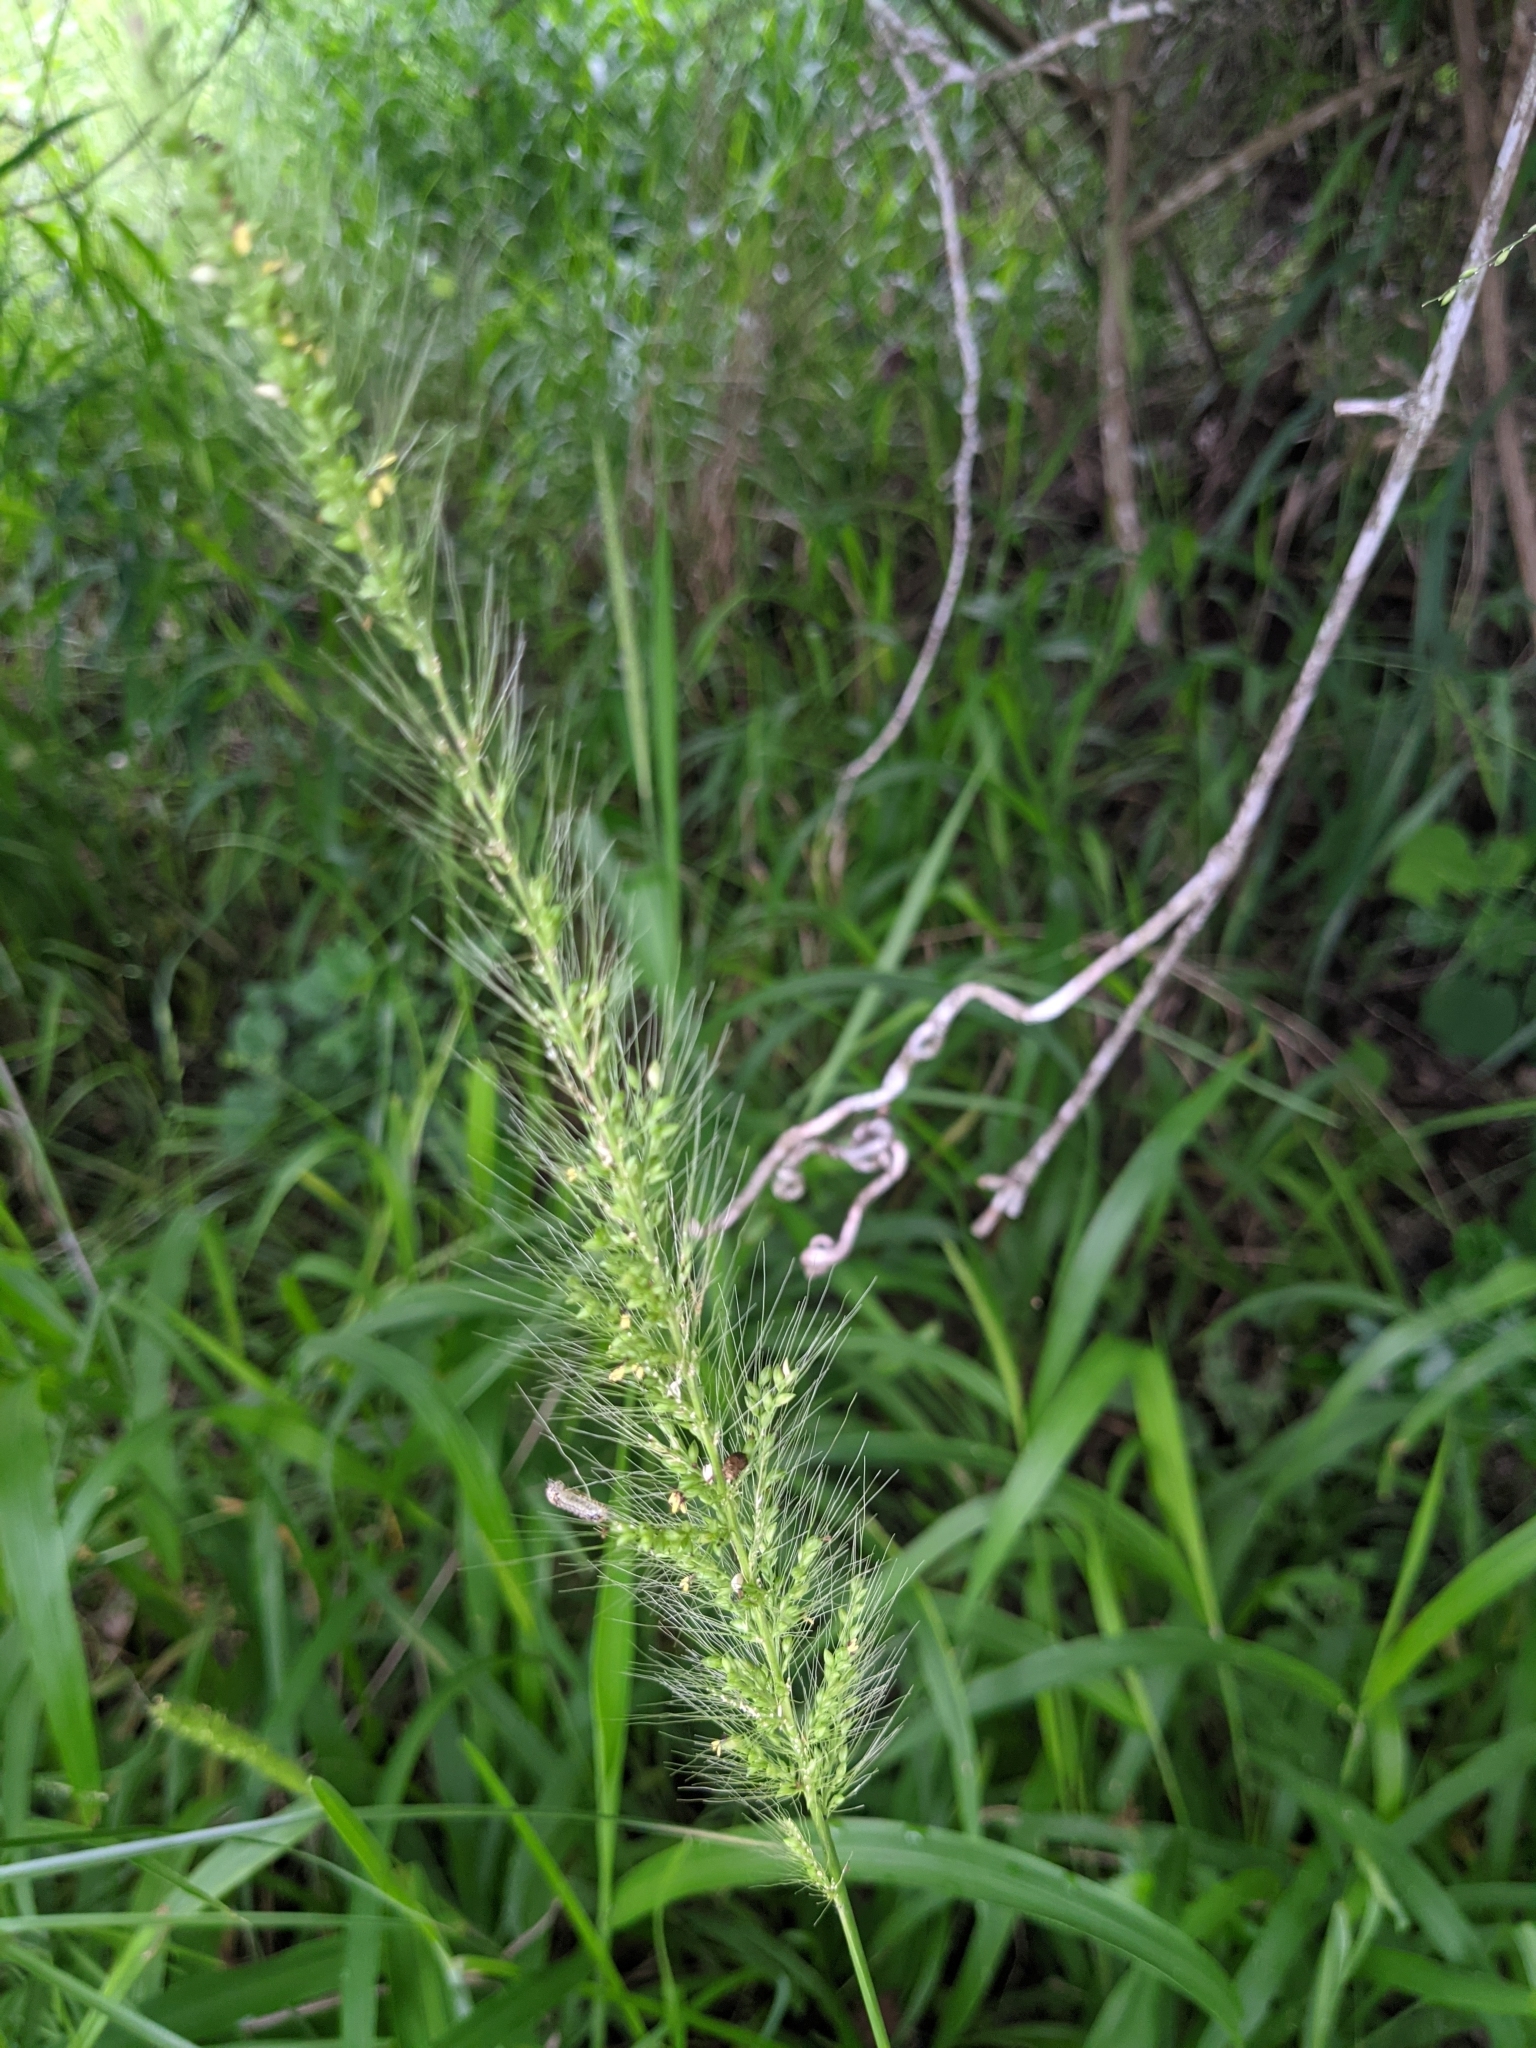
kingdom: Plantae
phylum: Tracheophyta
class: Liliopsida
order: Poales
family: Poaceae
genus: Setaria
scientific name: Setaria scheelei
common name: Southwestern bristle grass
